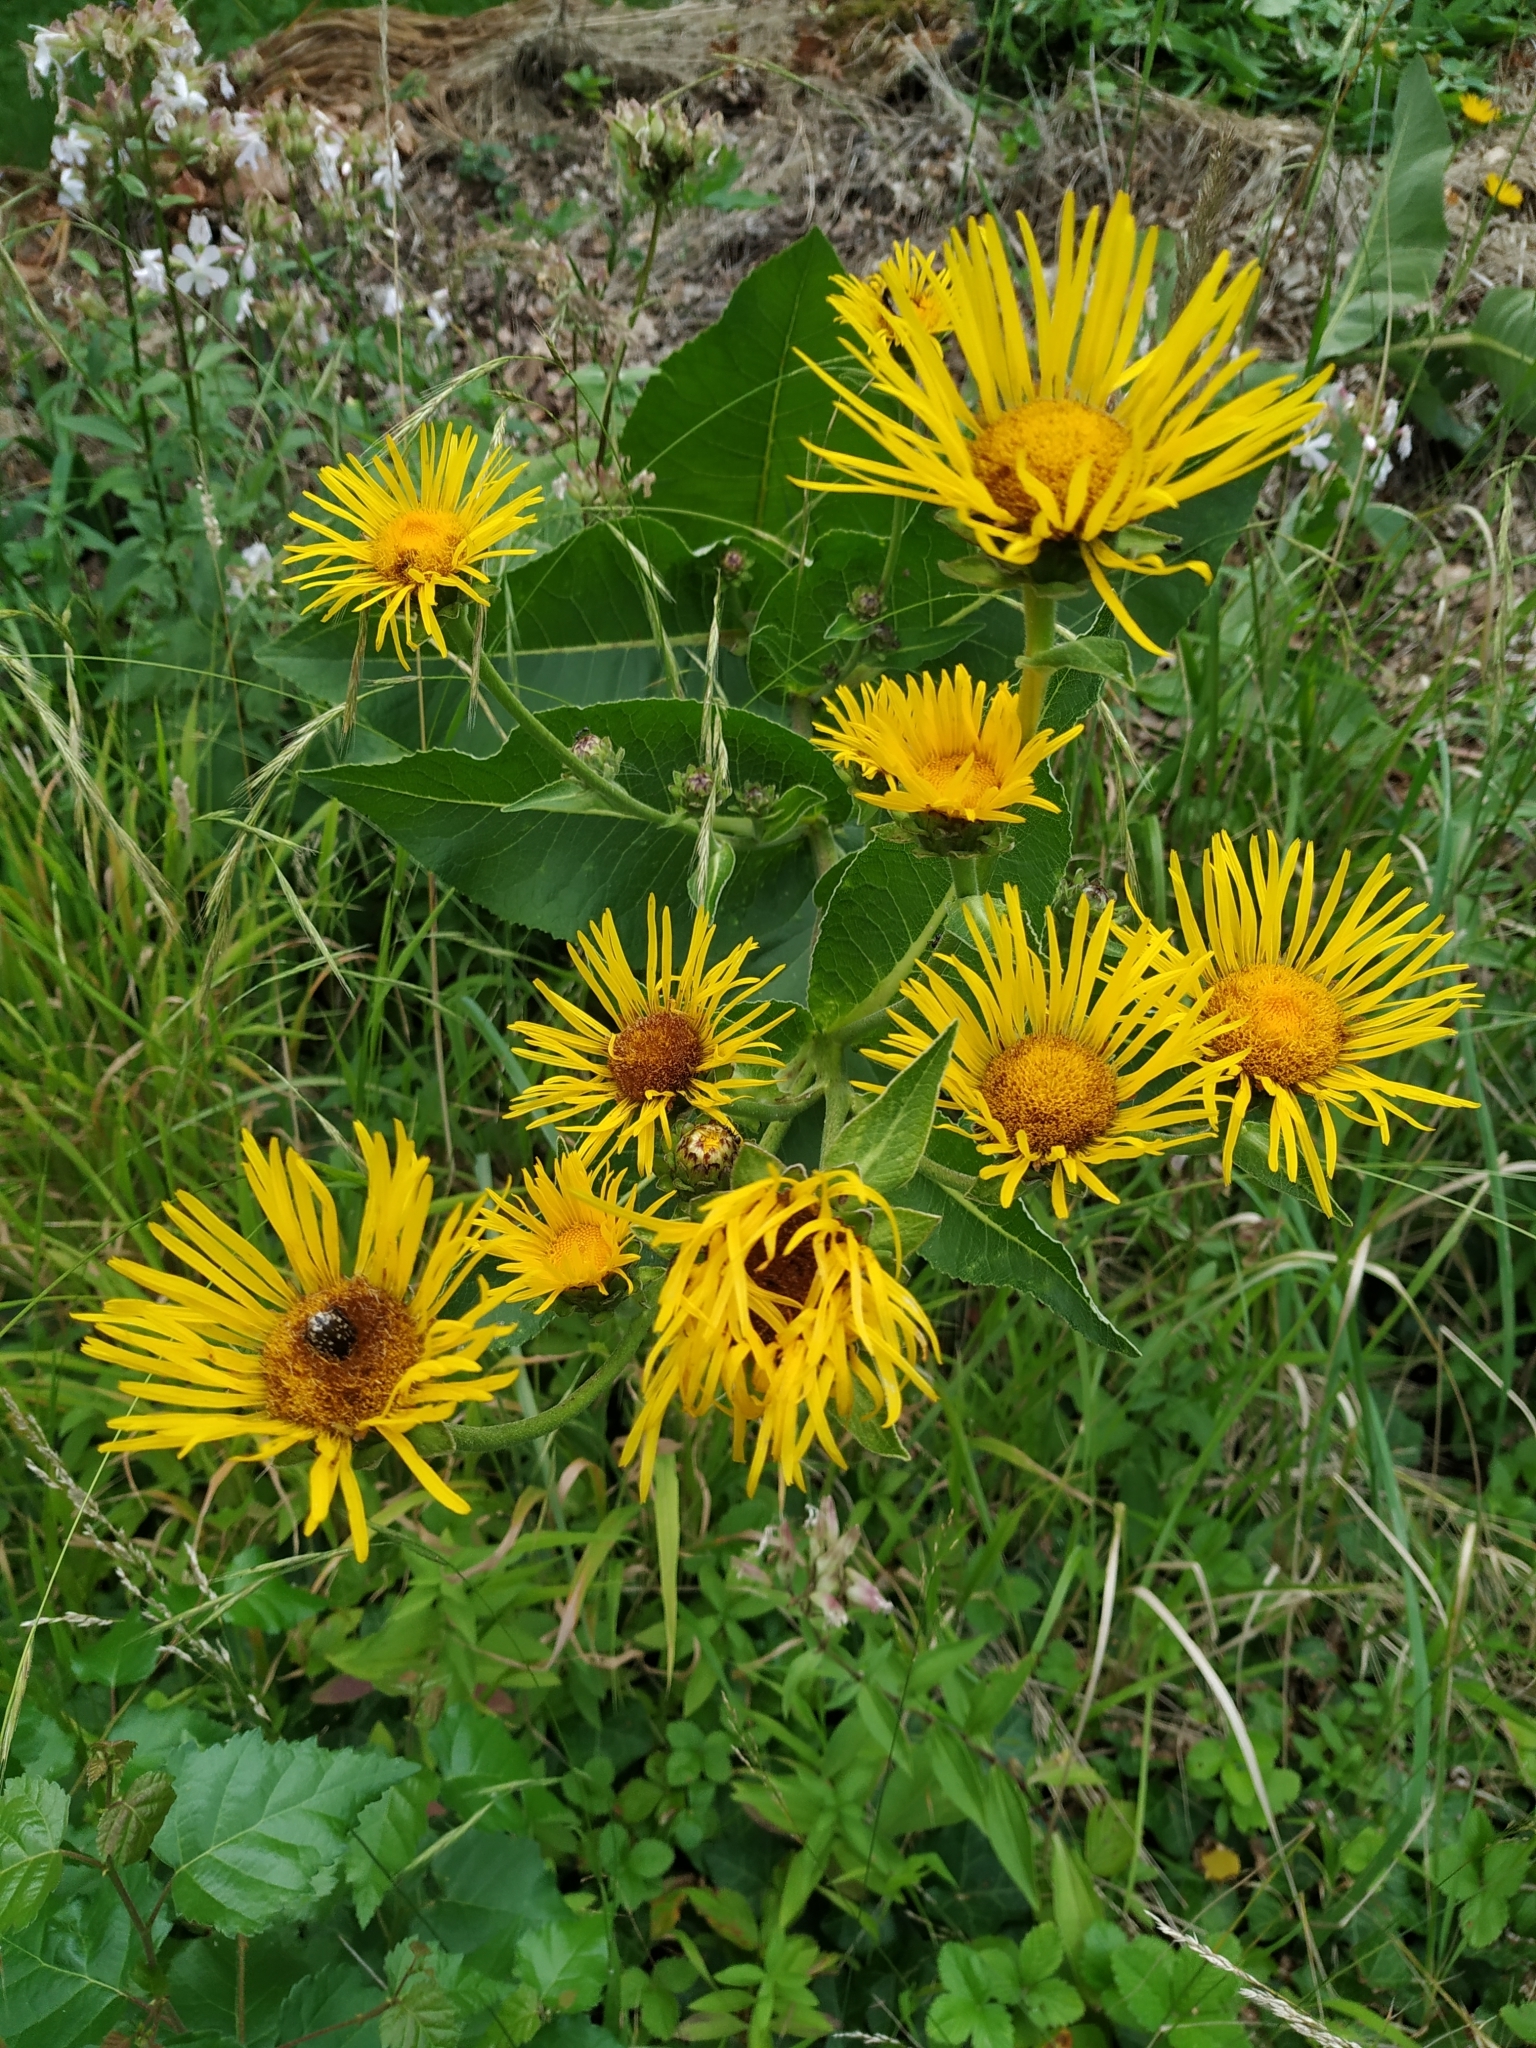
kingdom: Plantae
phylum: Tracheophyta
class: Magnoliopsida
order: Asterales
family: Asteraceae
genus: Inula
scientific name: Inula helenium
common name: Elecampane
